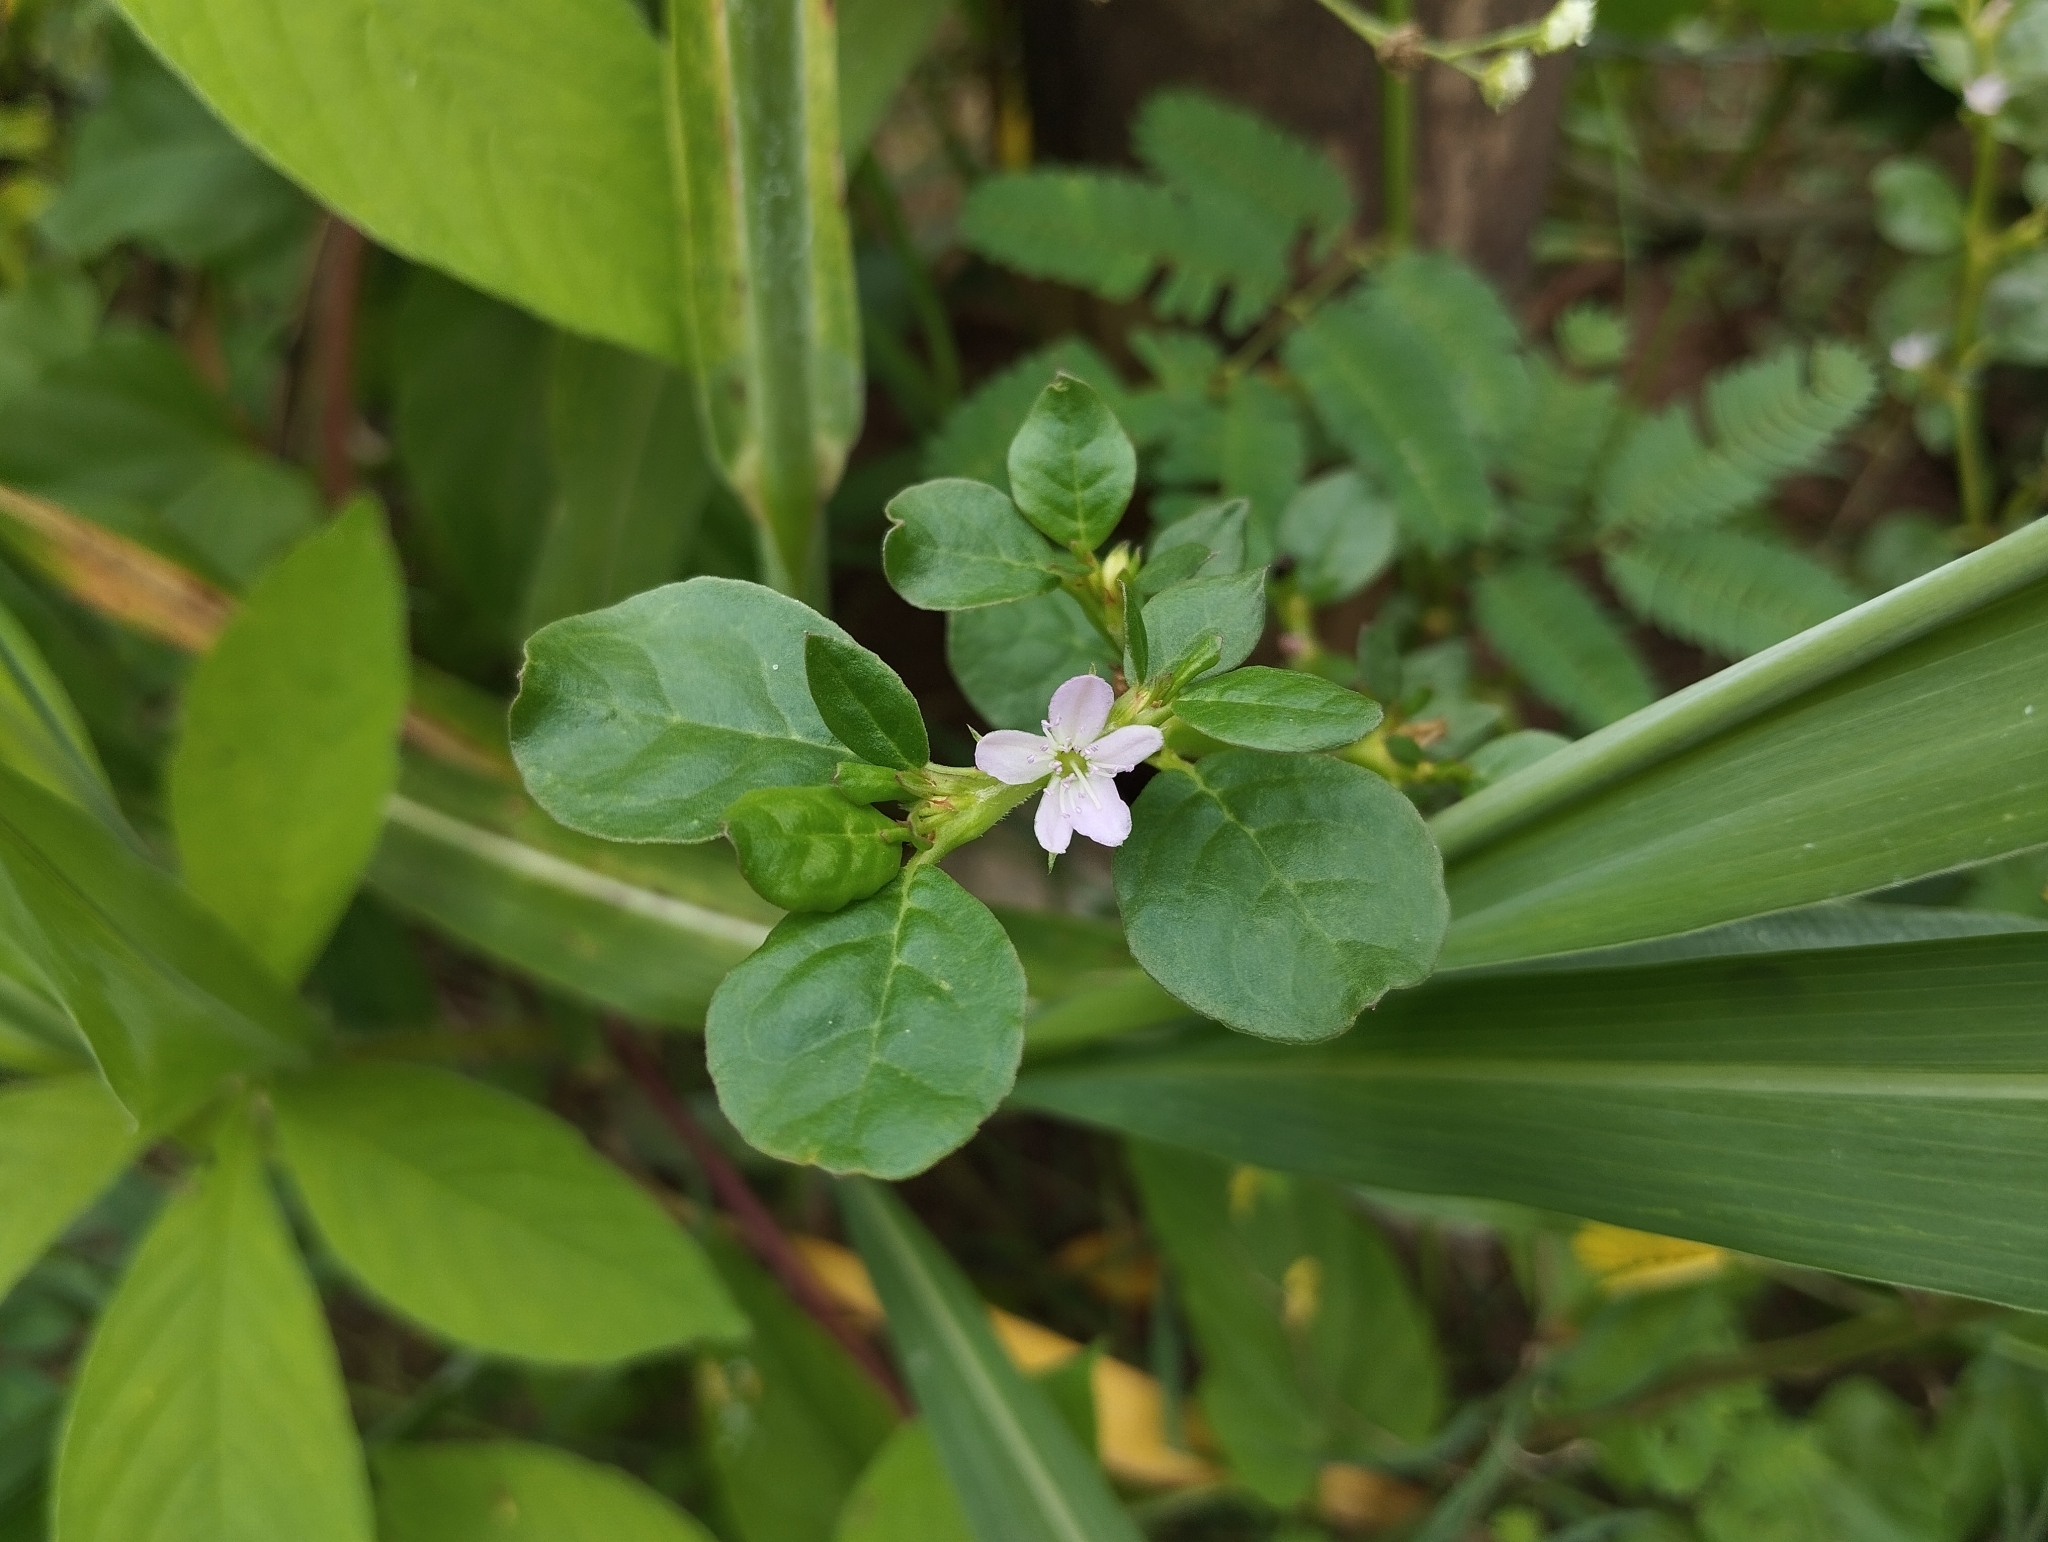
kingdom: Plantae
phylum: Tracheophyta
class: Magnoliopsida
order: Caryophyllales
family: Aizoaceae
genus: Trianthema
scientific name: Trianthema portulacastrum
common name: Desert horsepurslane
